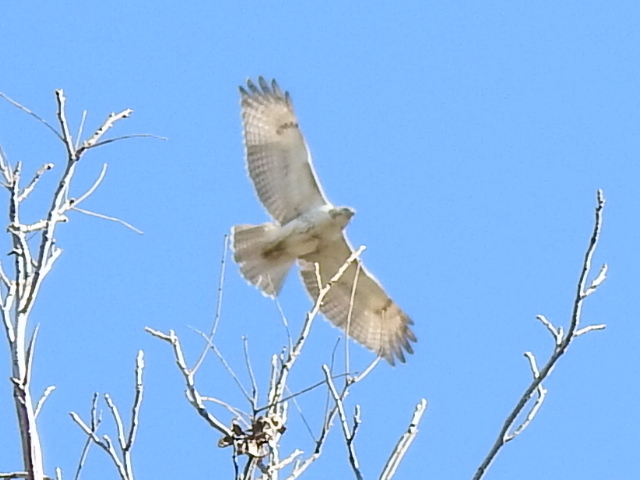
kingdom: Animalia
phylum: Chordata
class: Aves
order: Accipitriformes
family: Accipitridae
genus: Buteo
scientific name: Buteo jamaicensis
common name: Red-tailed hawk
